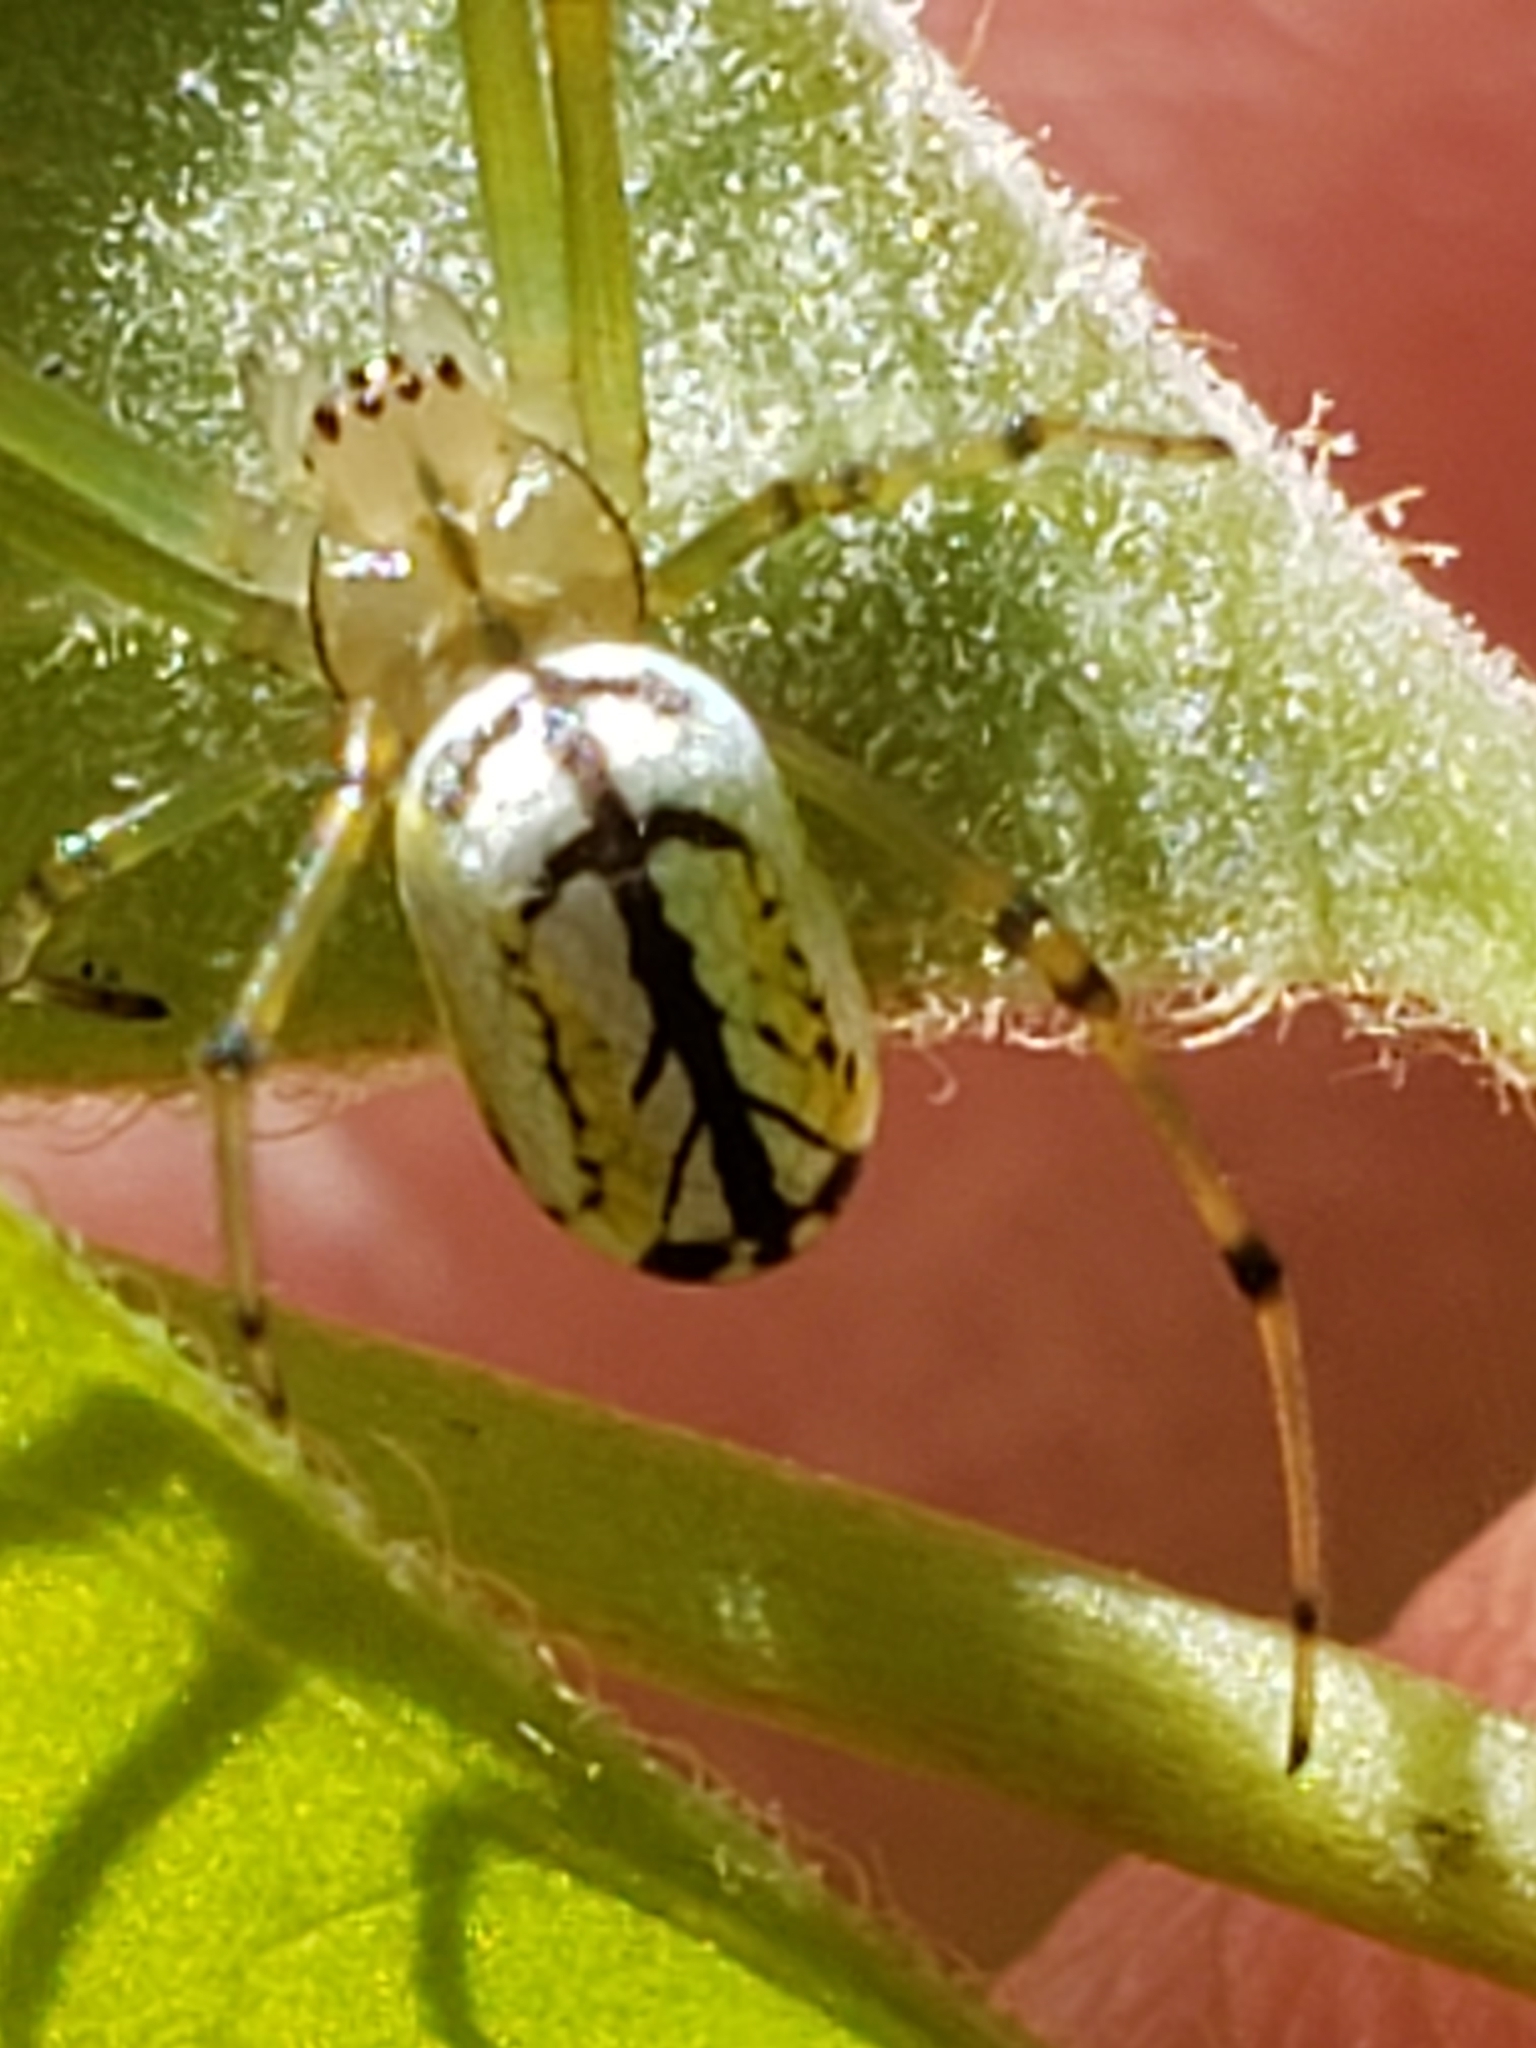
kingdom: Animalia
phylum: Arthropoda
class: Arachnida
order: Araneae
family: Tetragnathidae
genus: Leucauge
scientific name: Leucauge venusta
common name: Longjawed orb weavers
